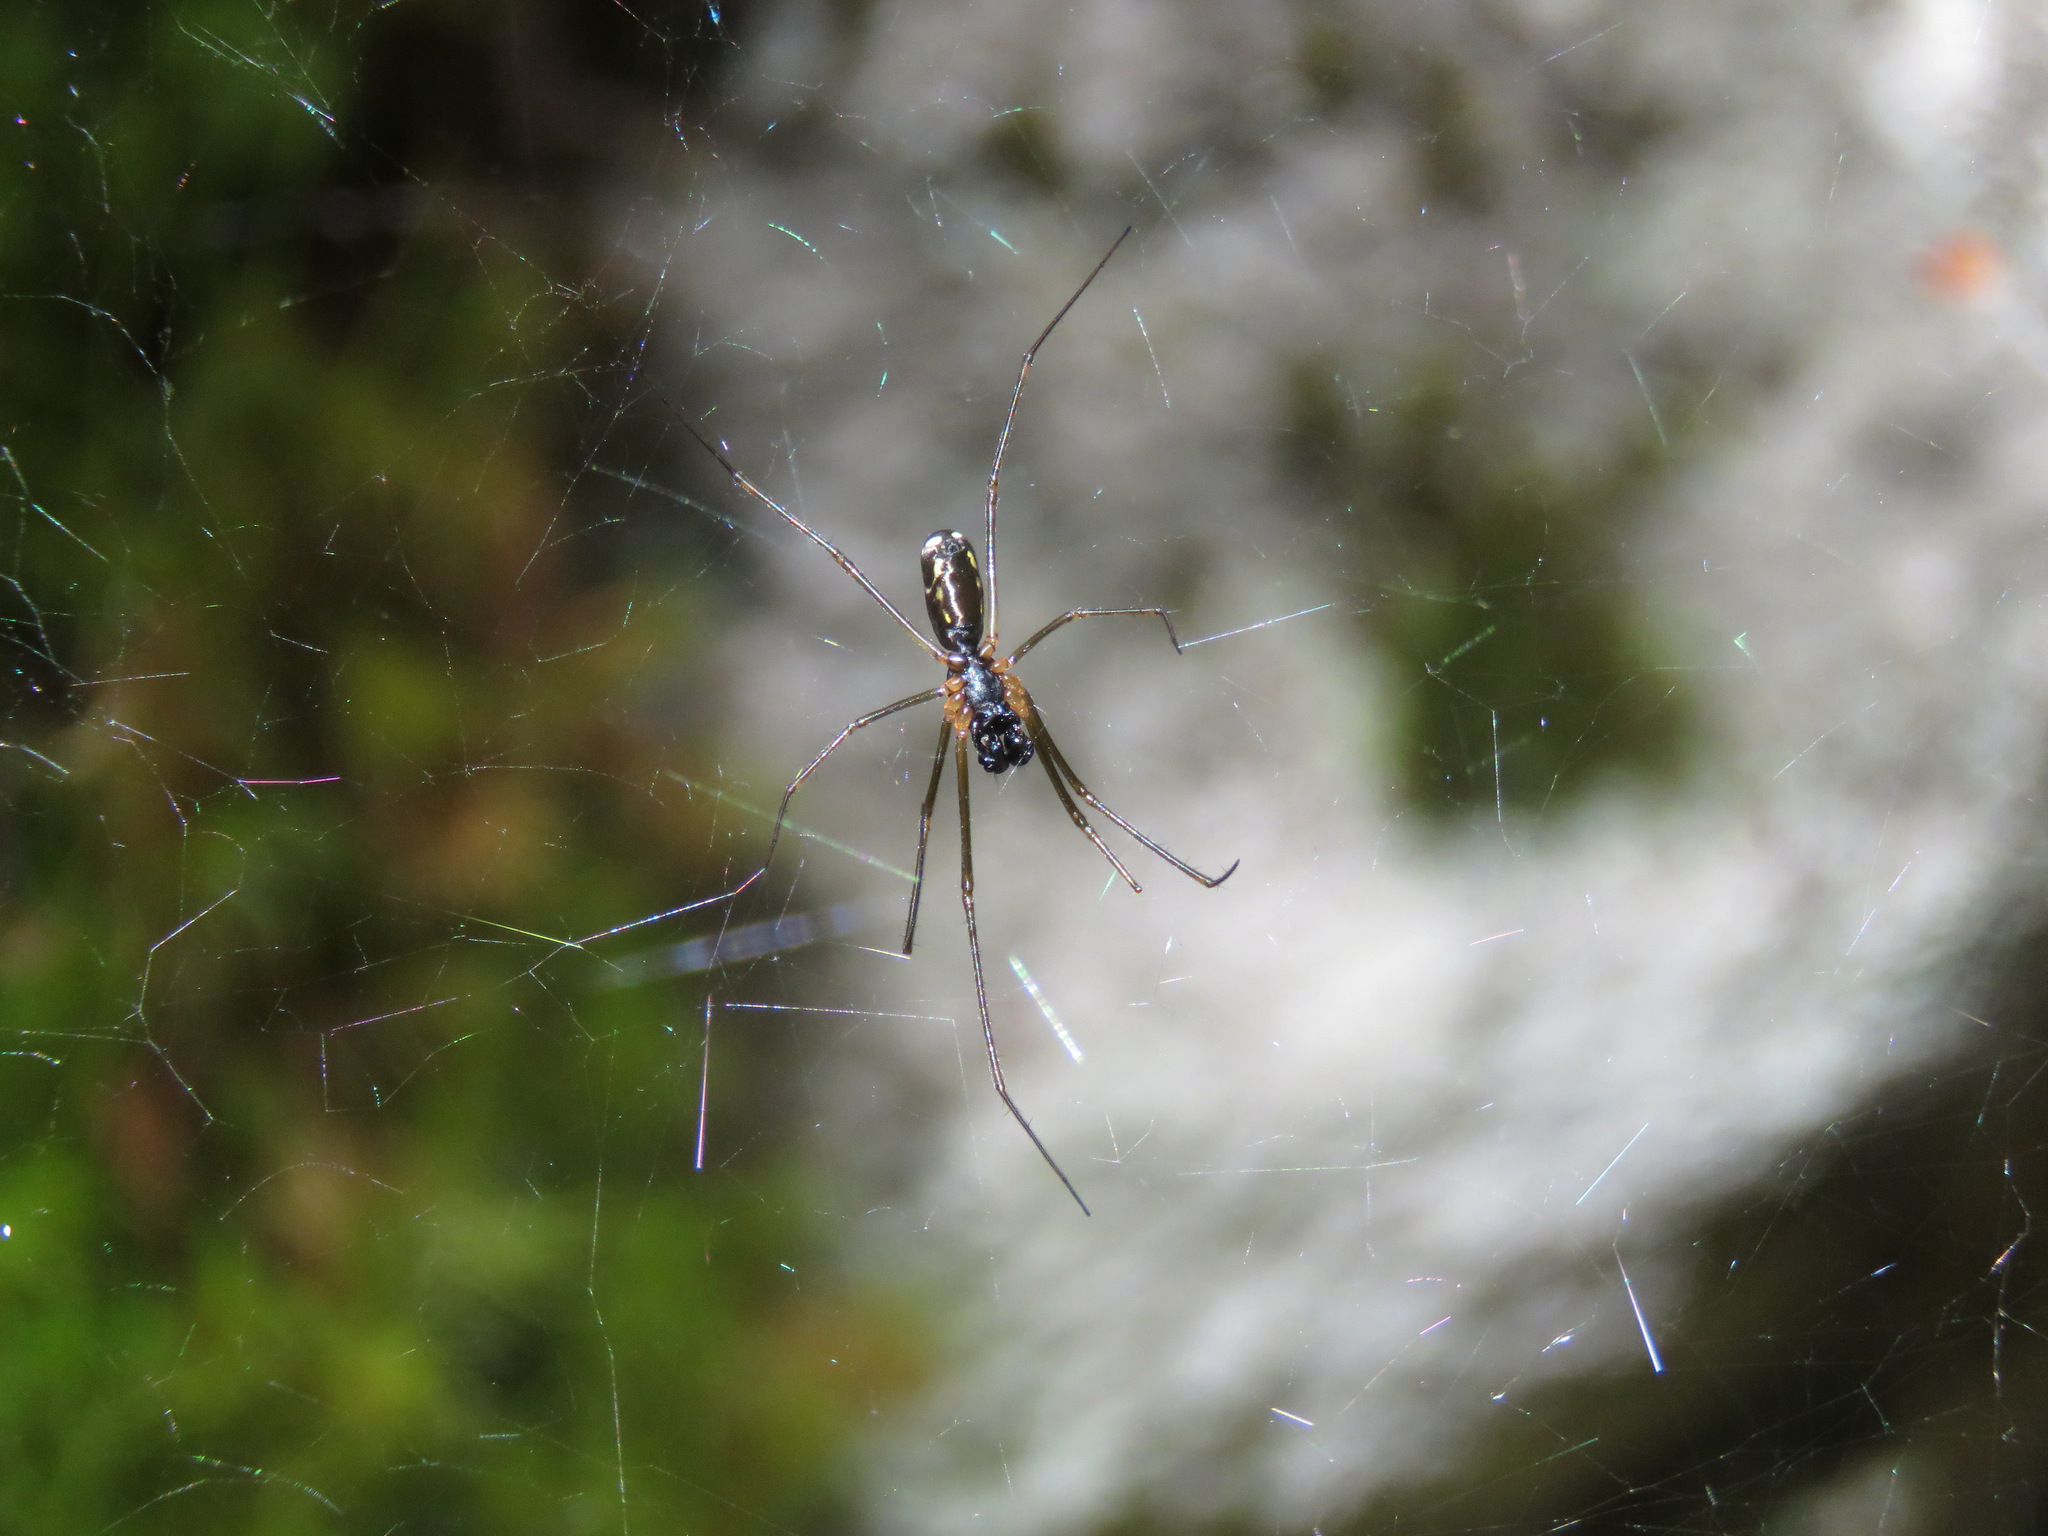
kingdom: Animalia
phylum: Arthropoda
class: Arachnida
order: Araneae
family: Linyphiidae
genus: Neriene
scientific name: Neriene radiata
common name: Filmy dome spider
